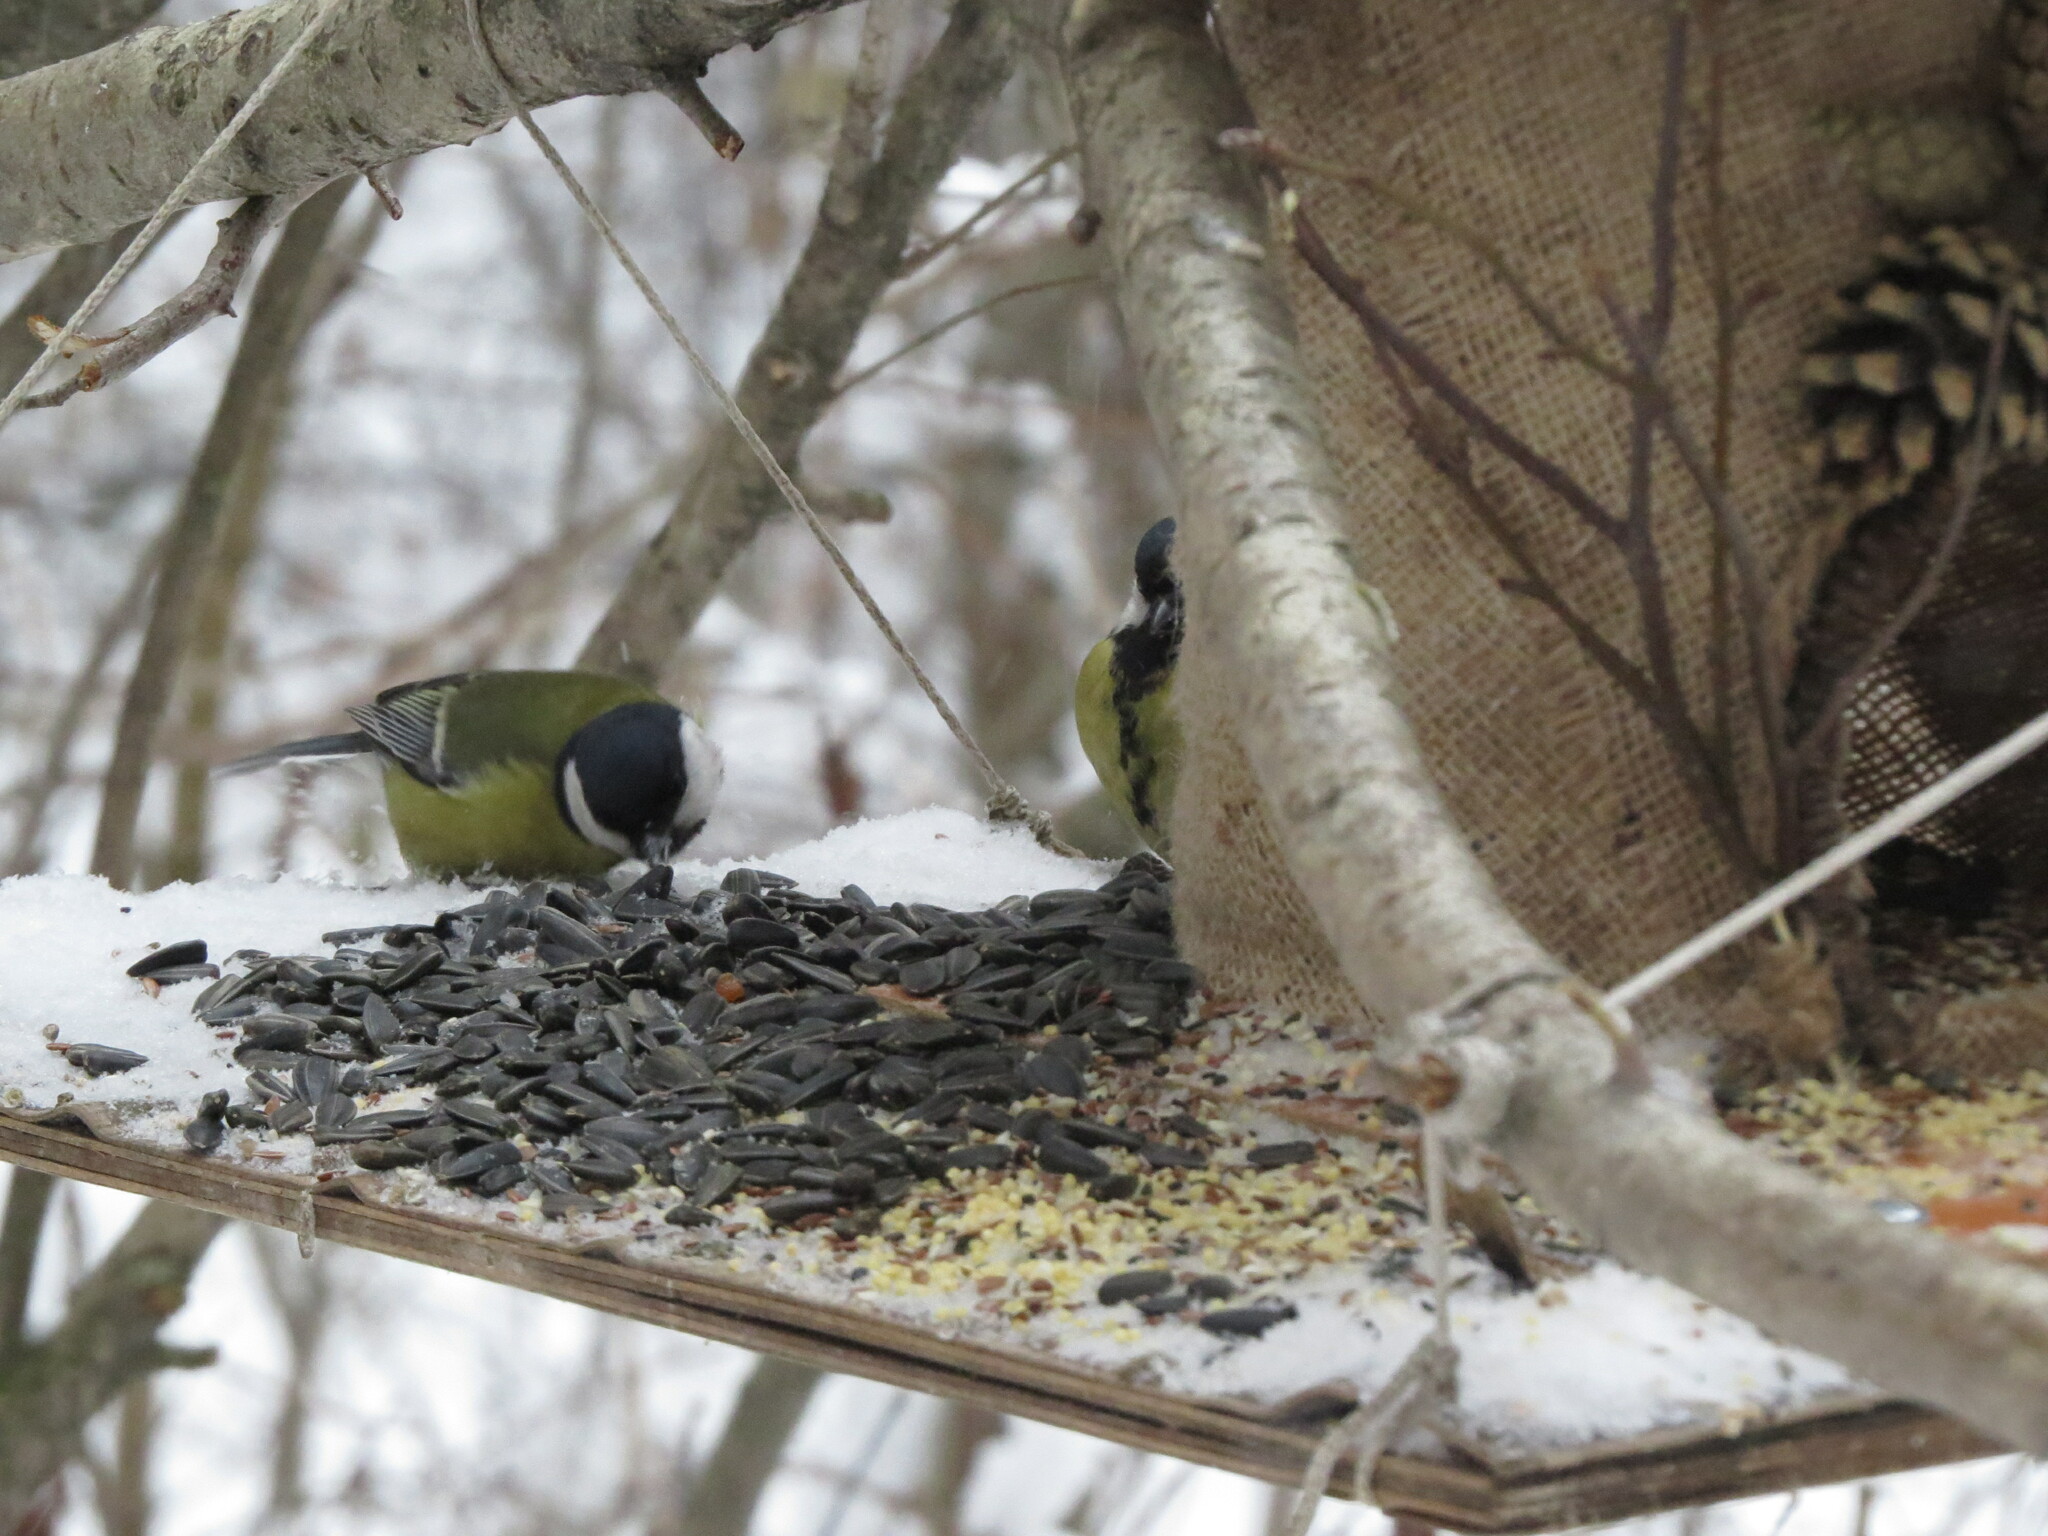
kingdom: Animalia
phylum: Chordata
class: Aves
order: Passeriformes
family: Paridae
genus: Parus
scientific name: Parus major
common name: Great tit
